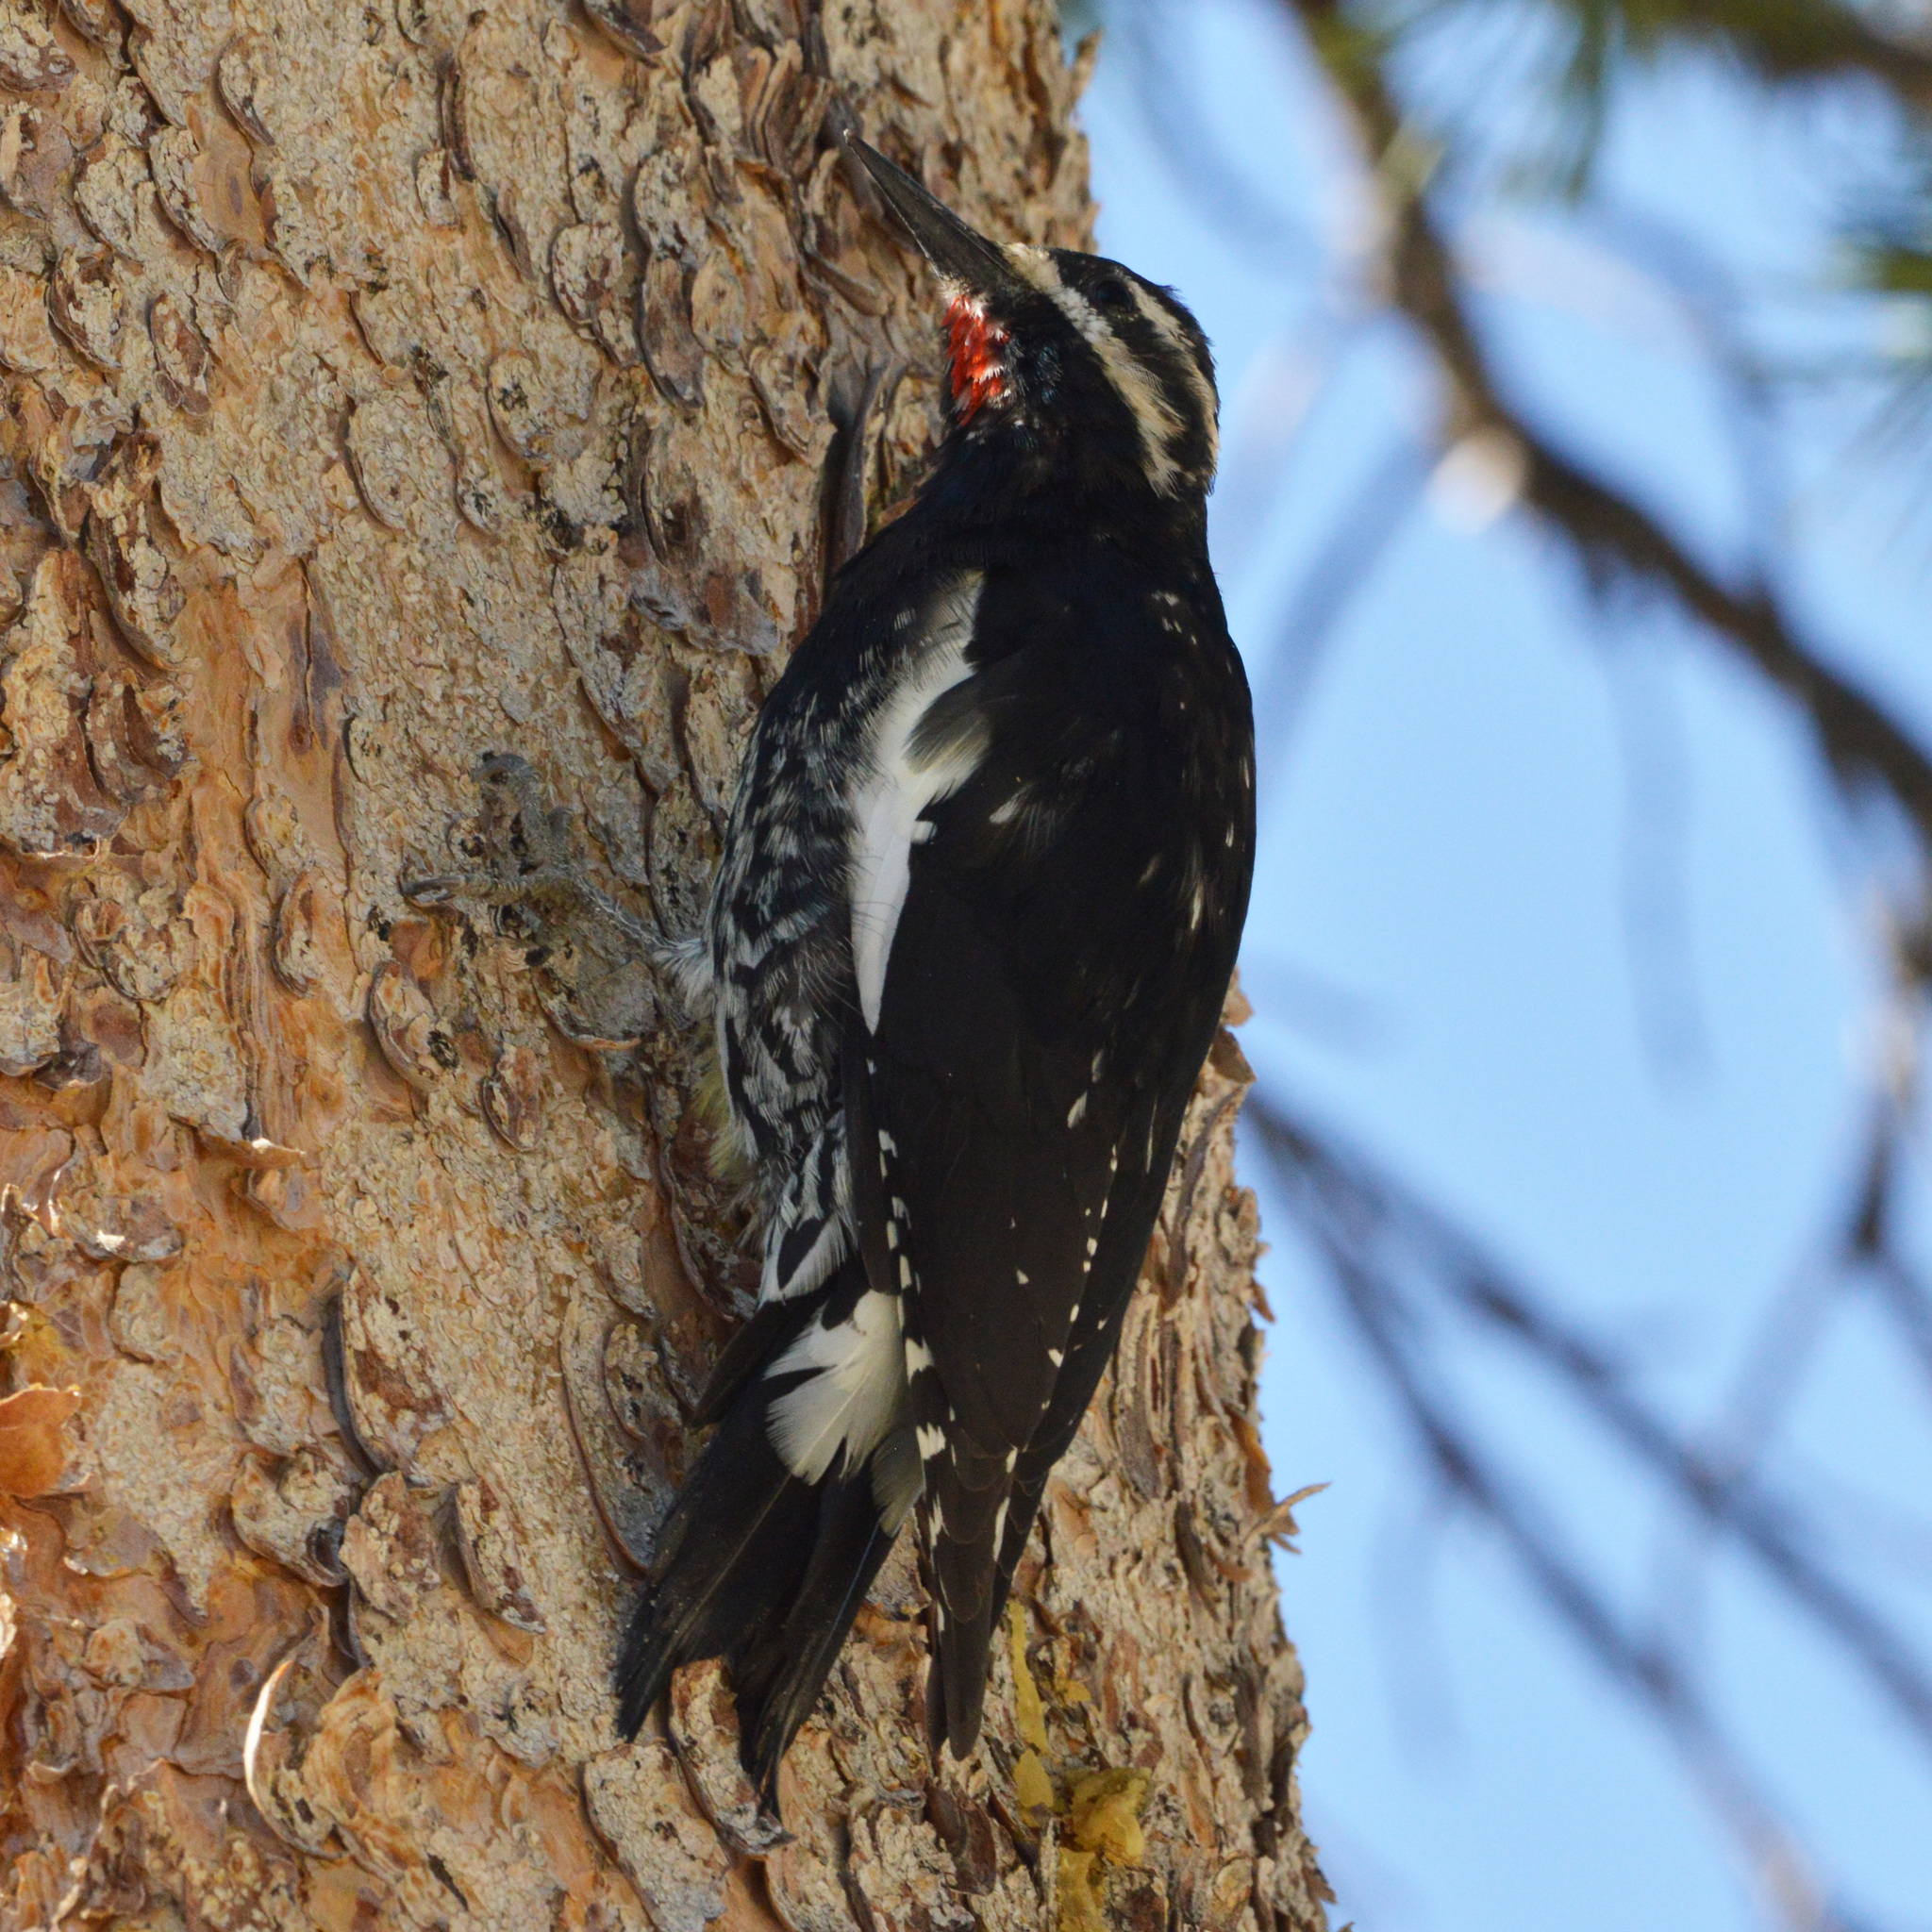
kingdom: Animalia
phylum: Chordata
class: Aves
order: Piciformes
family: Picidae
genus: Sphyrapicus
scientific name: Sphyrapicus thyroideus
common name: Williamson's sapsucker
